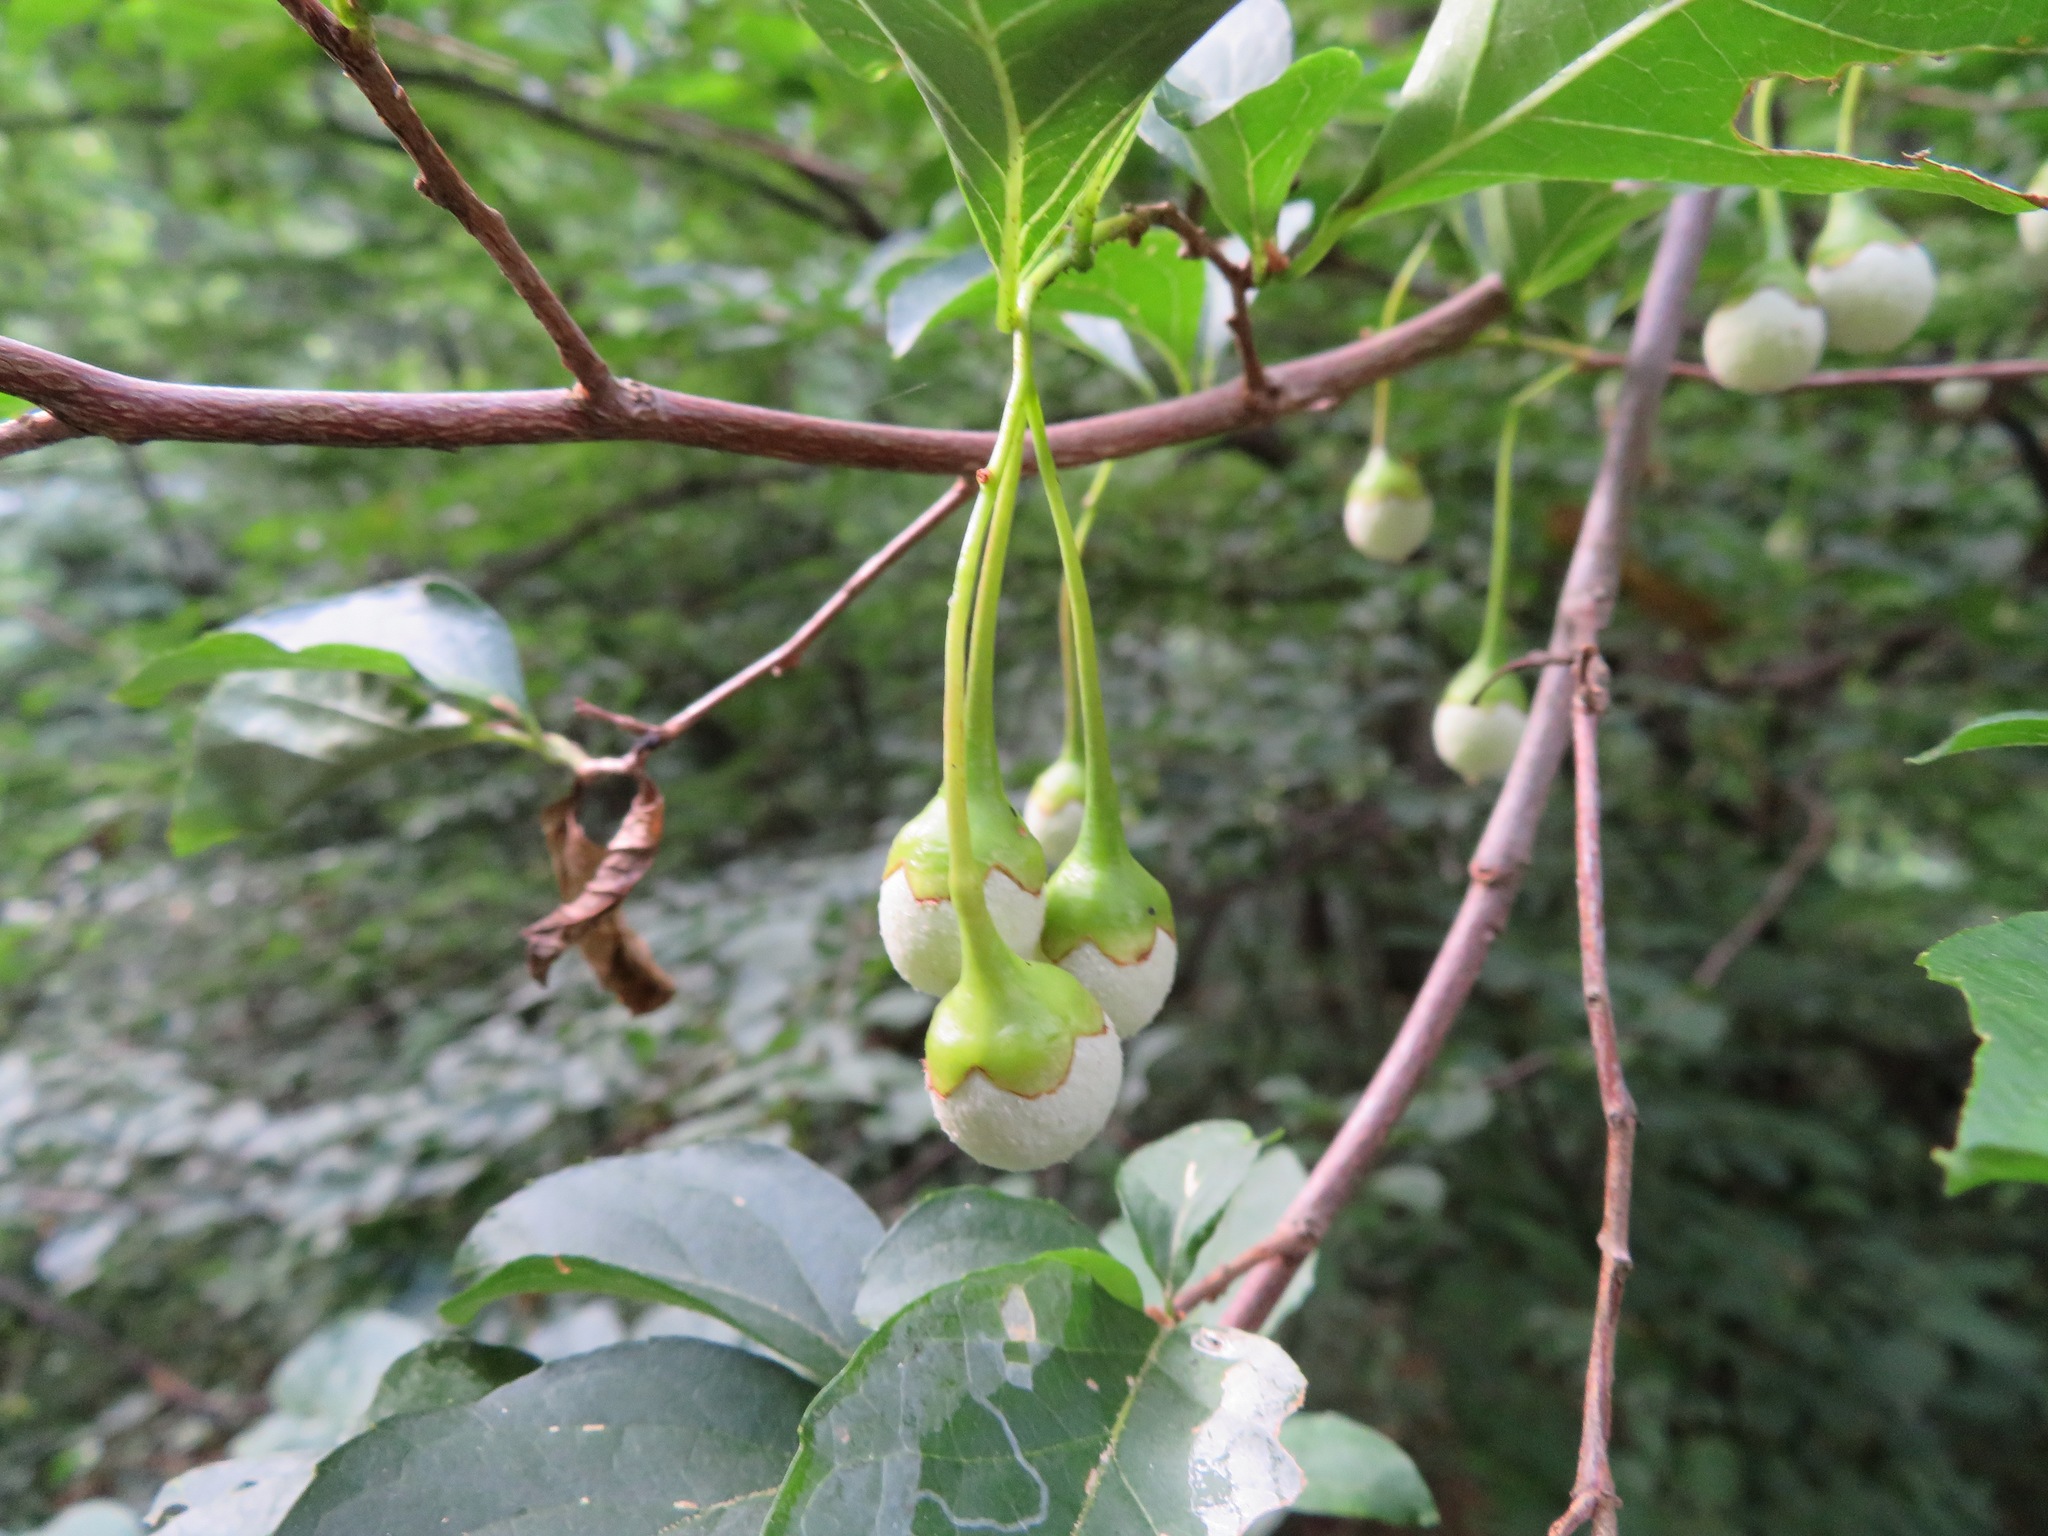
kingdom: Plantae
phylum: Tracheophyta
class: Magnoliopsida
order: Ericales
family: Styracaceae
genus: Styrax
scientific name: Styrax japonicus
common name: Japanese snowbell
